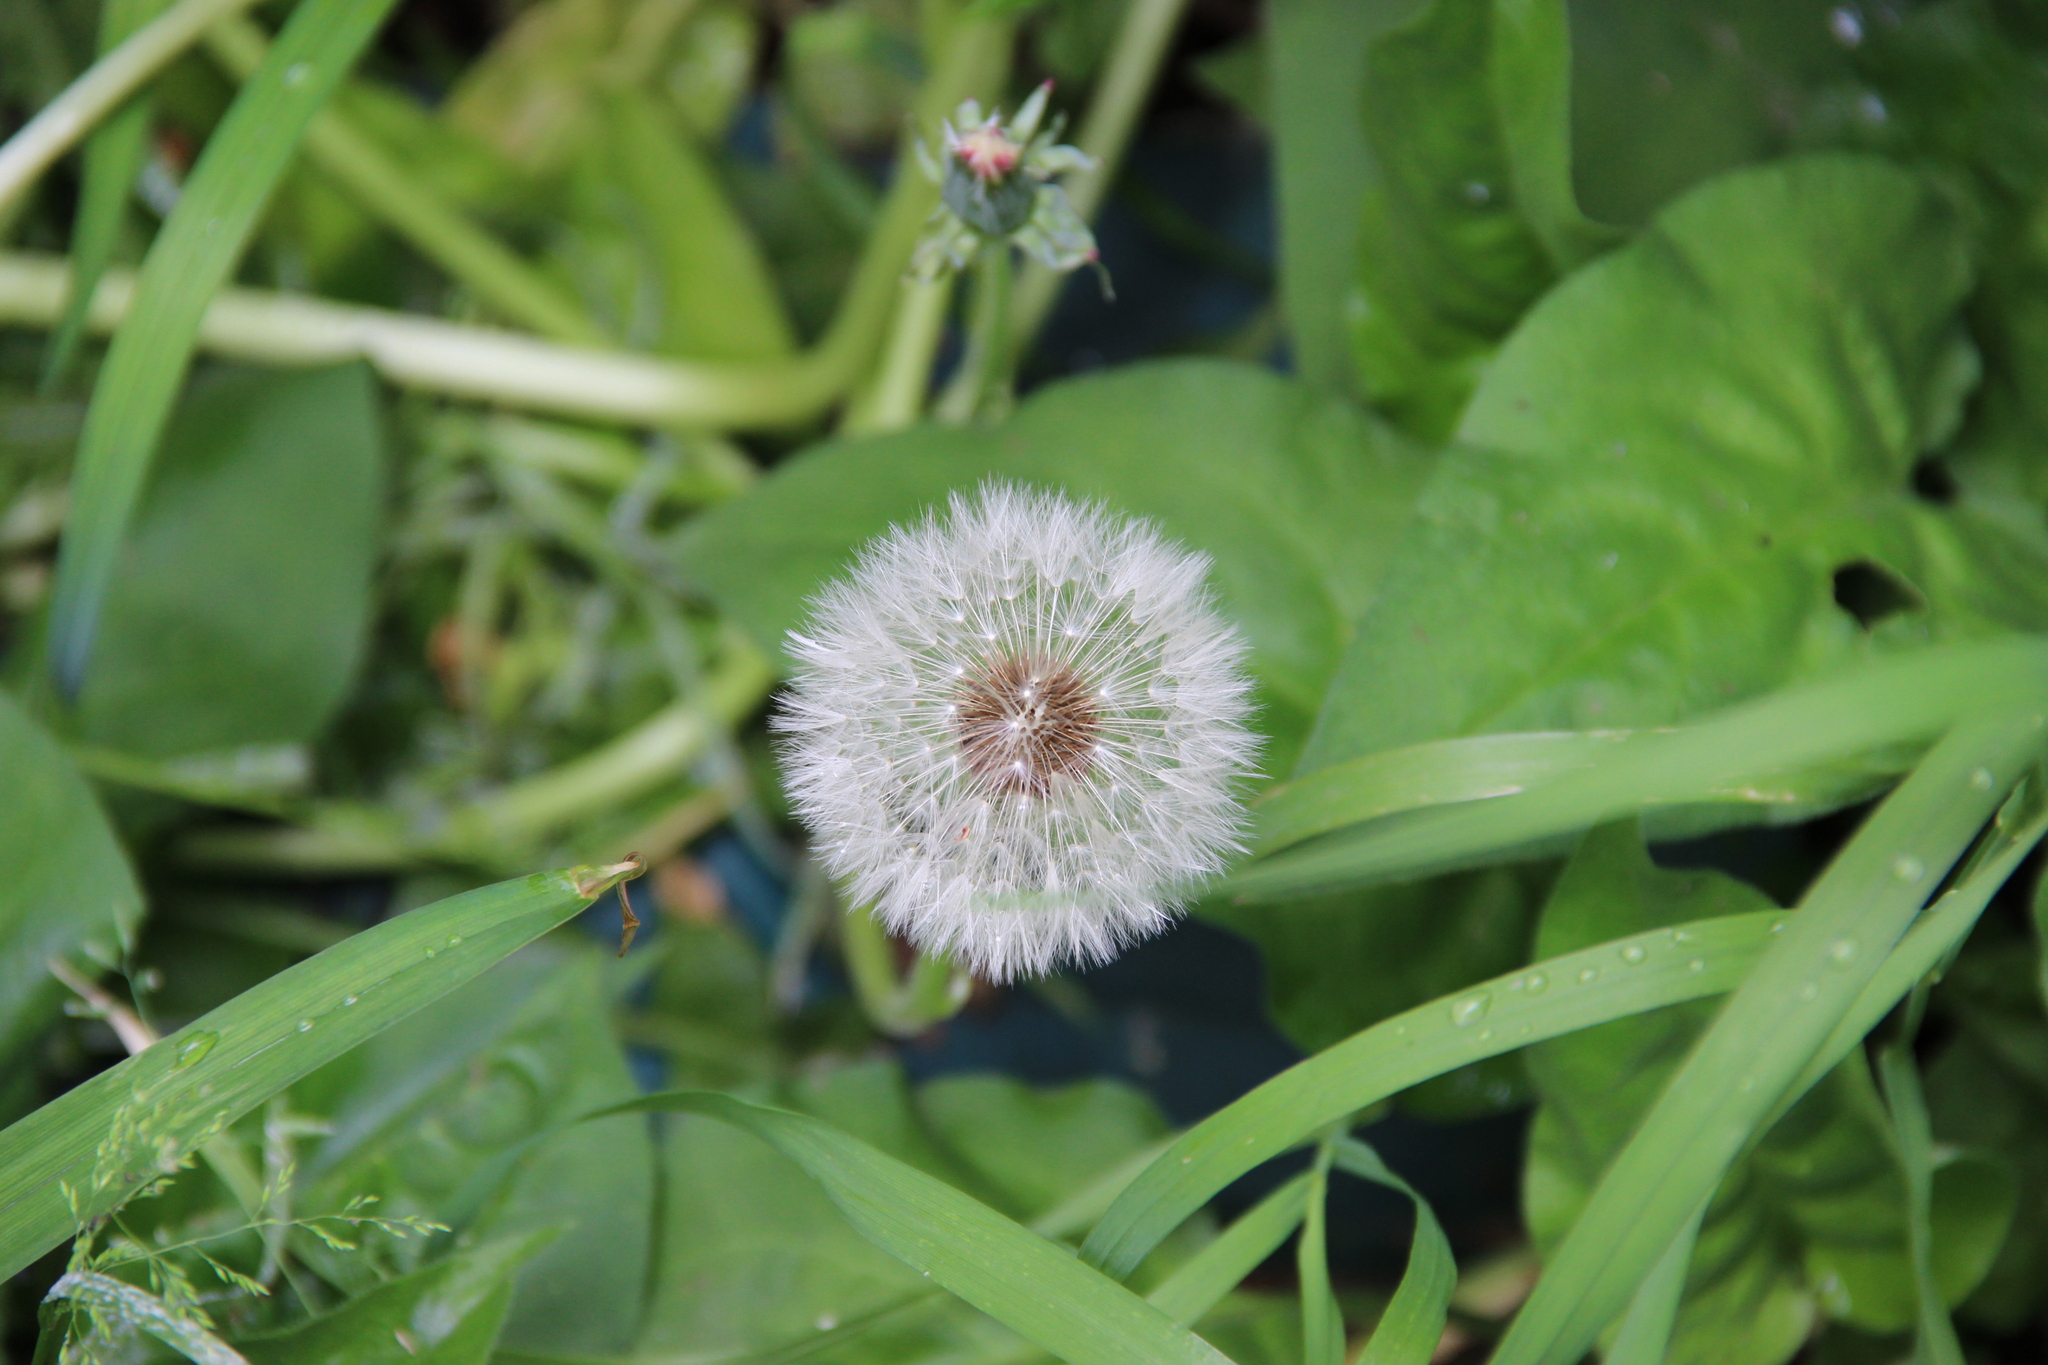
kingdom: Plantae
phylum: Tracheophyta
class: Magnoliopsida
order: Asterales
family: Asteraceae
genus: Taraxacum
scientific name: Taraxacum officinale
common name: Common dandelion
